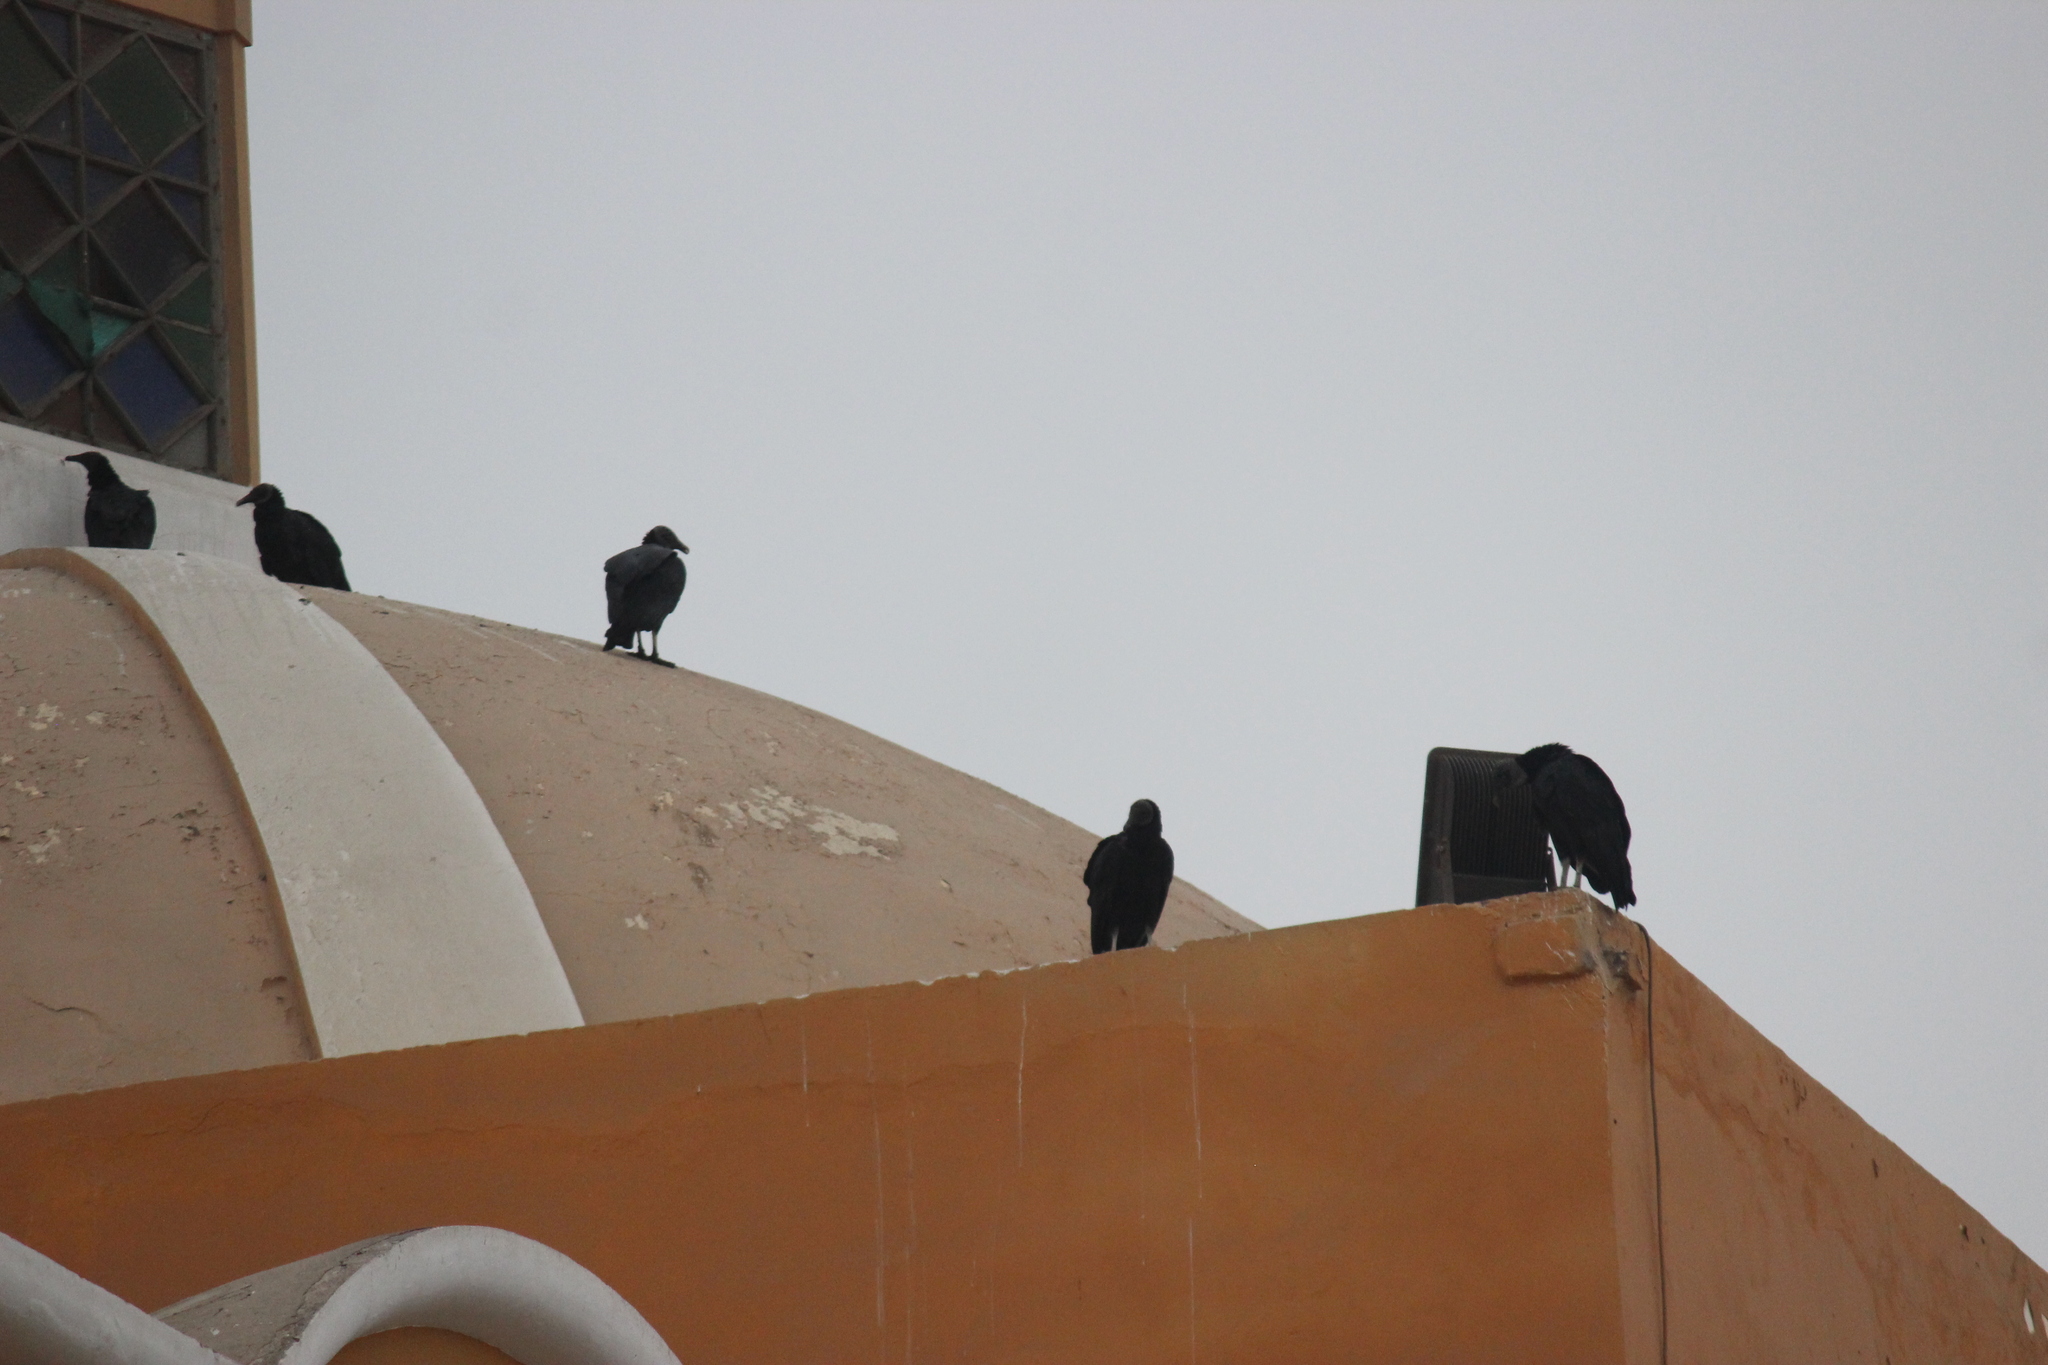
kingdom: Animalia
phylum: Chordata
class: Aves
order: Accipitriformes
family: Cathartidae
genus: Coragyps
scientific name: Coragyps atratus
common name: Black vulture
